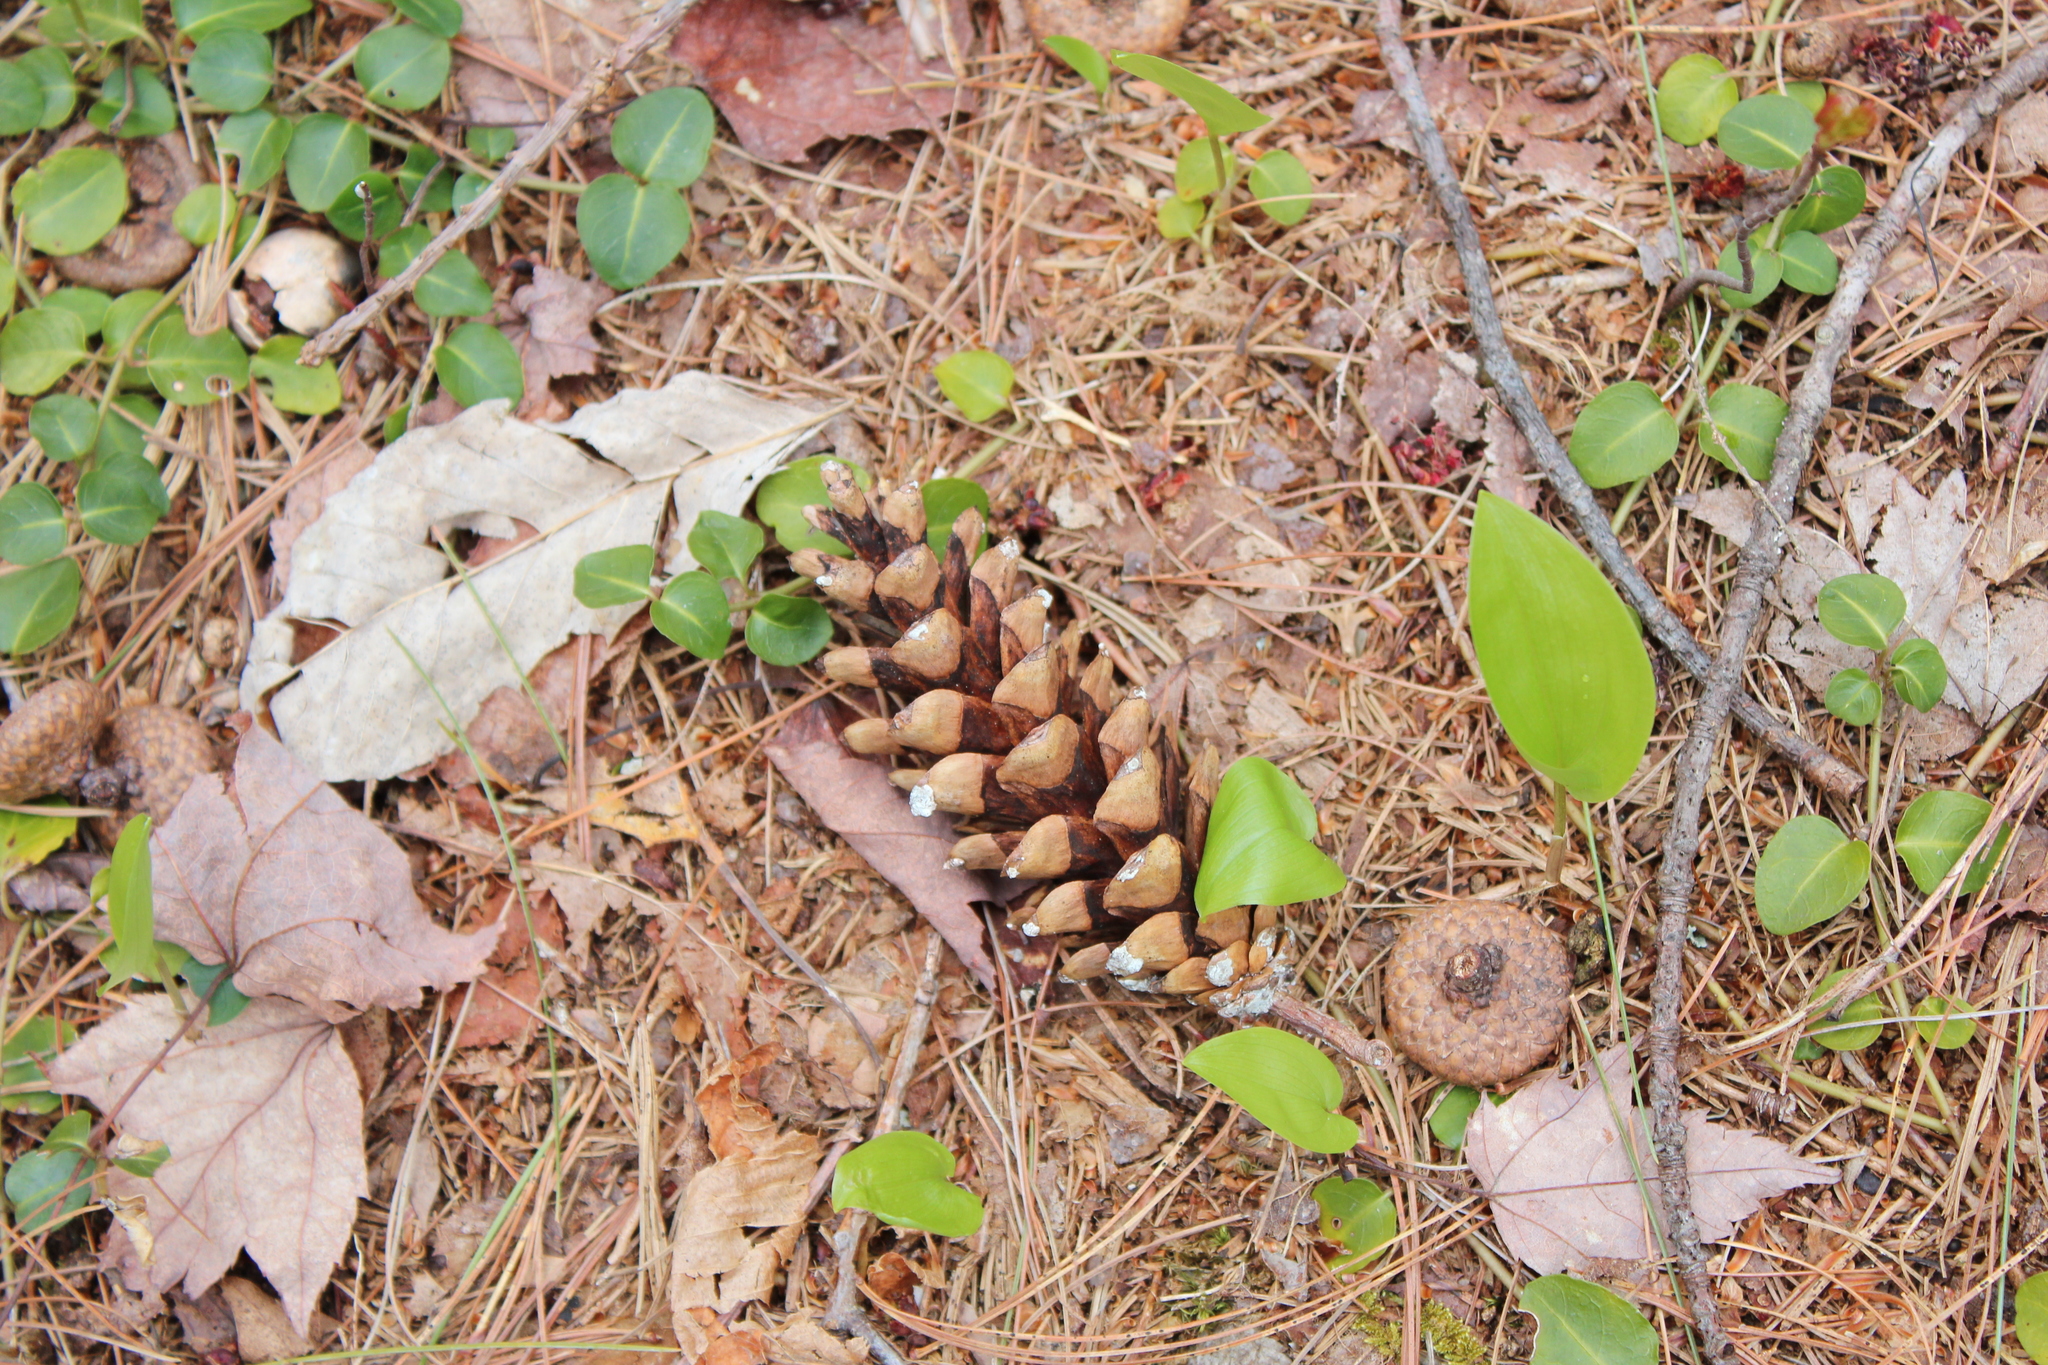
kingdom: Plantae
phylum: Tracheophyta
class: Pinopsida
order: Pinales
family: Pinaceae
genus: Pinus
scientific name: Pinus strobus
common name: Weymouth pine
